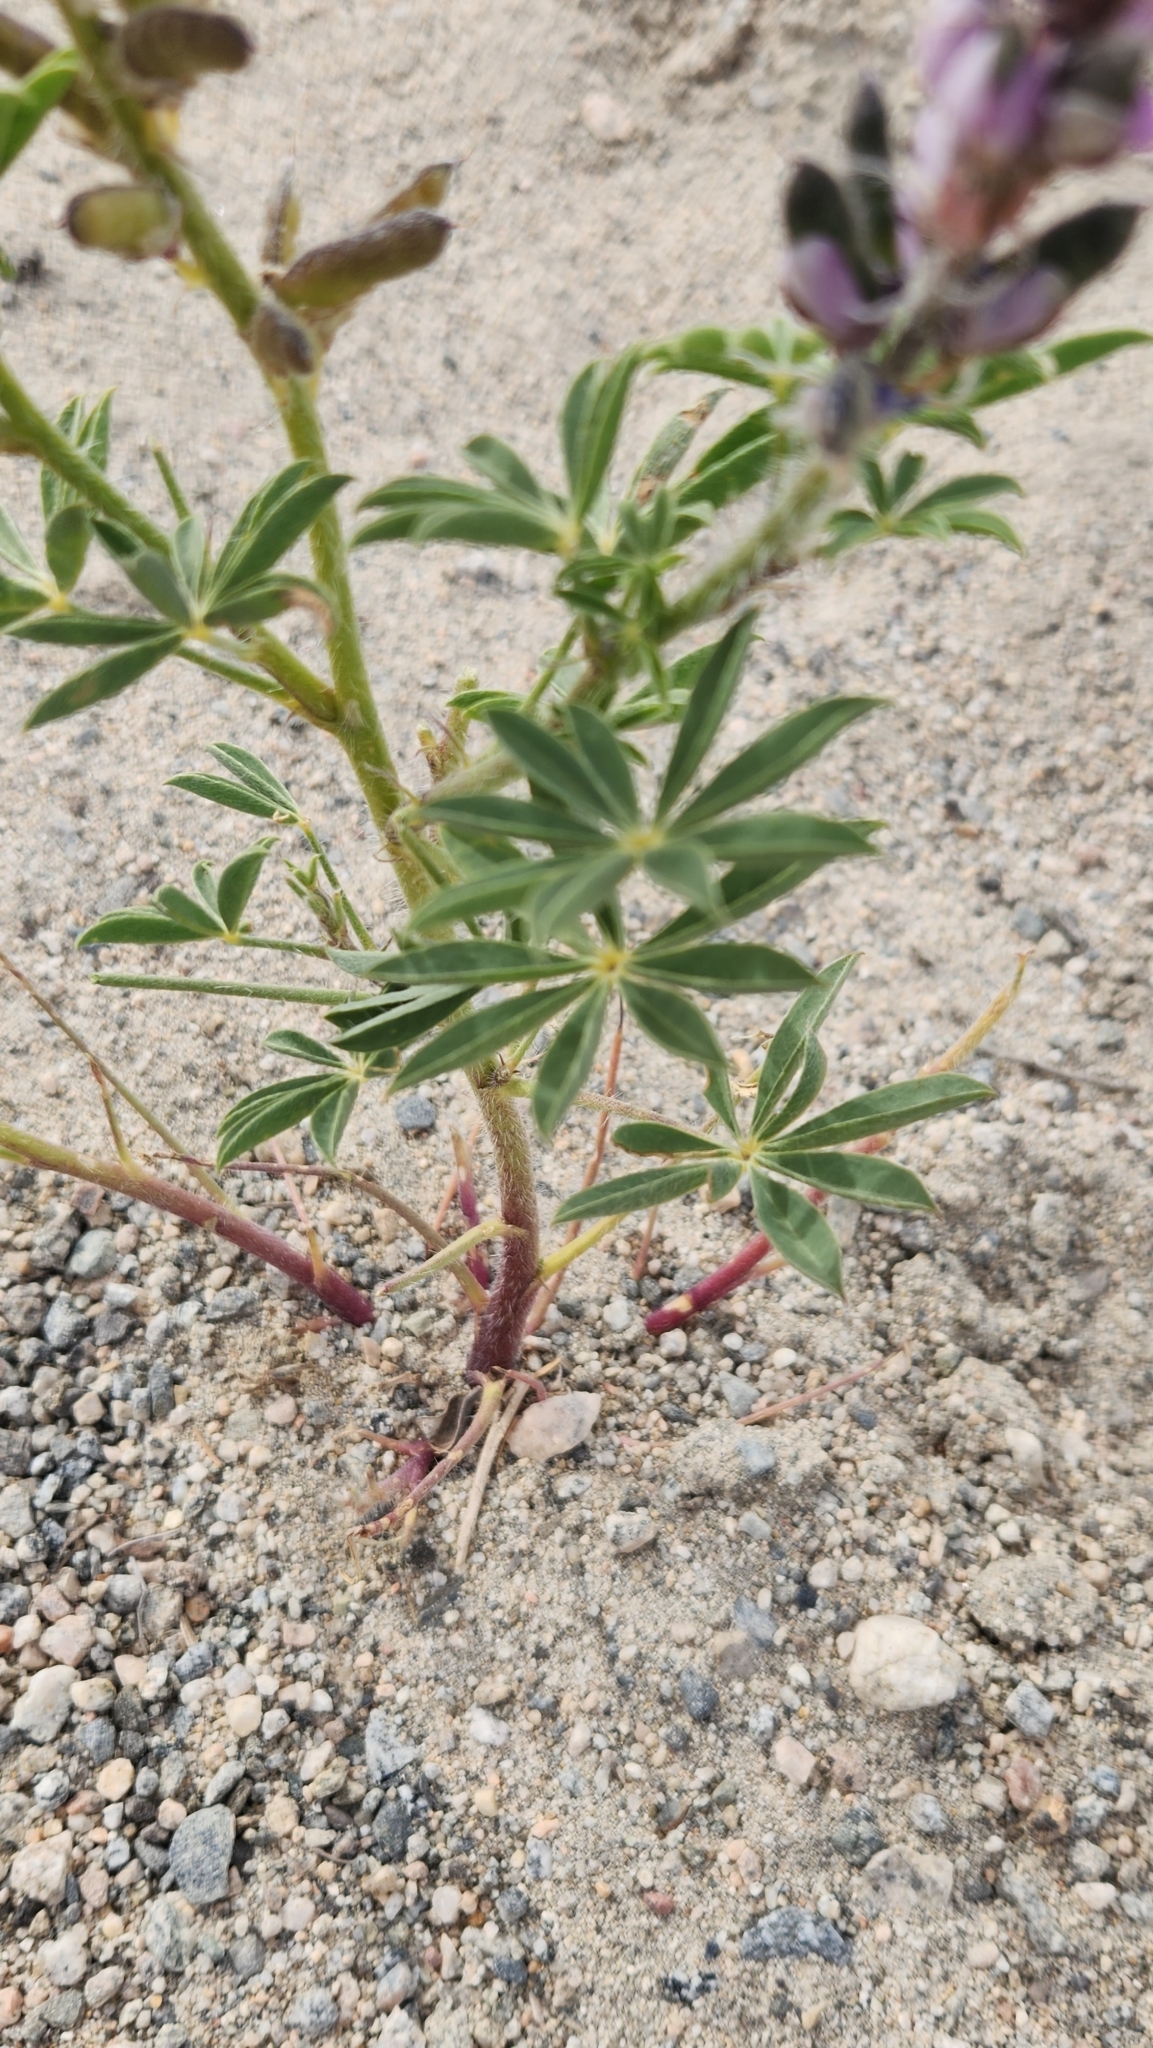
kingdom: Plantae
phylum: Tracheophyta
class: Magnoliopsida
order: Fabales
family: Fabaceae
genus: Lupinus
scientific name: Lupinus arizonicus
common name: Arizona lupine
